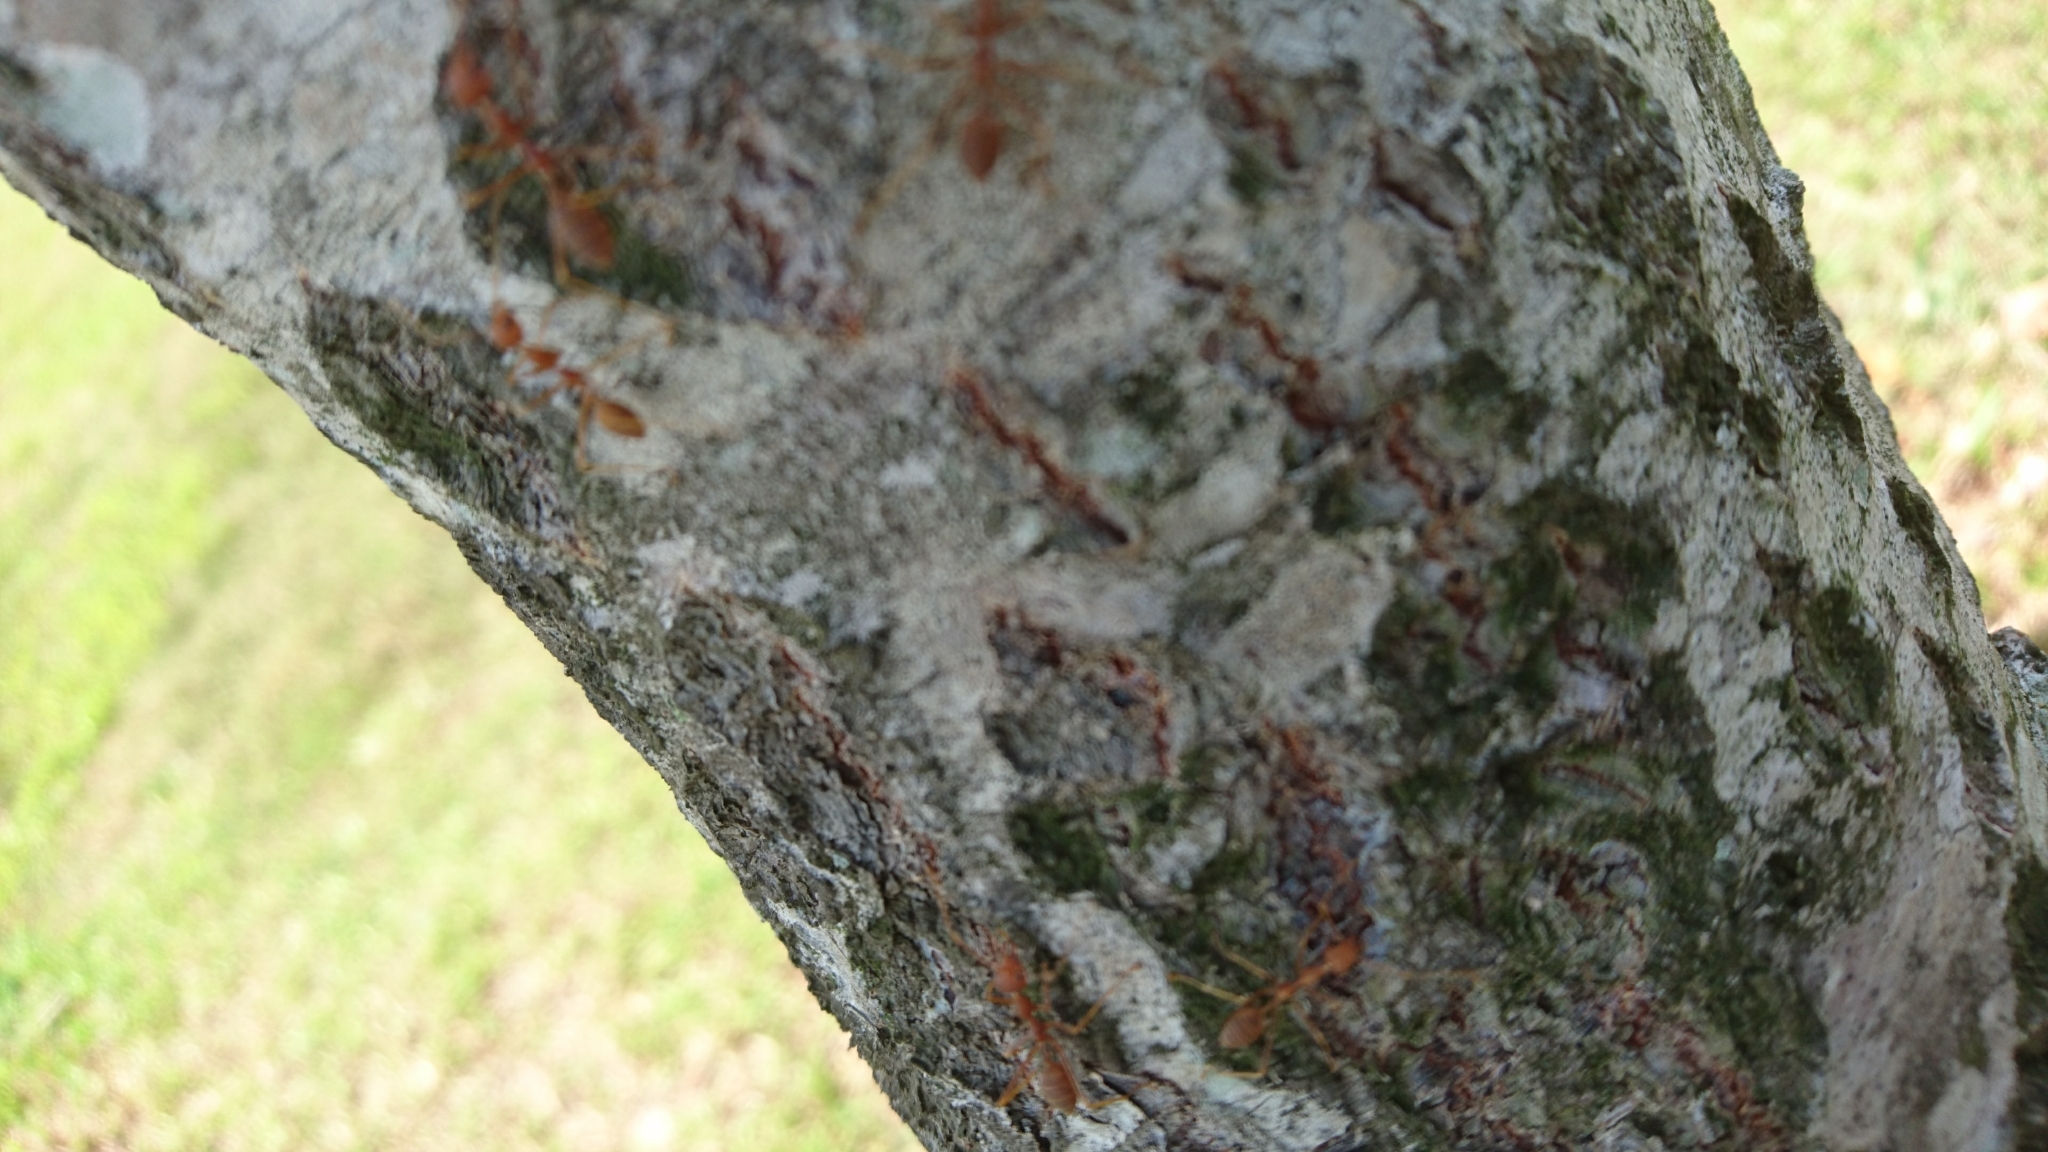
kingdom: Animalia
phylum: Arthropoda
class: Insecta
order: Hymenoptera
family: Formicidae
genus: Oecophylla
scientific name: Oecophylla smaragdina
